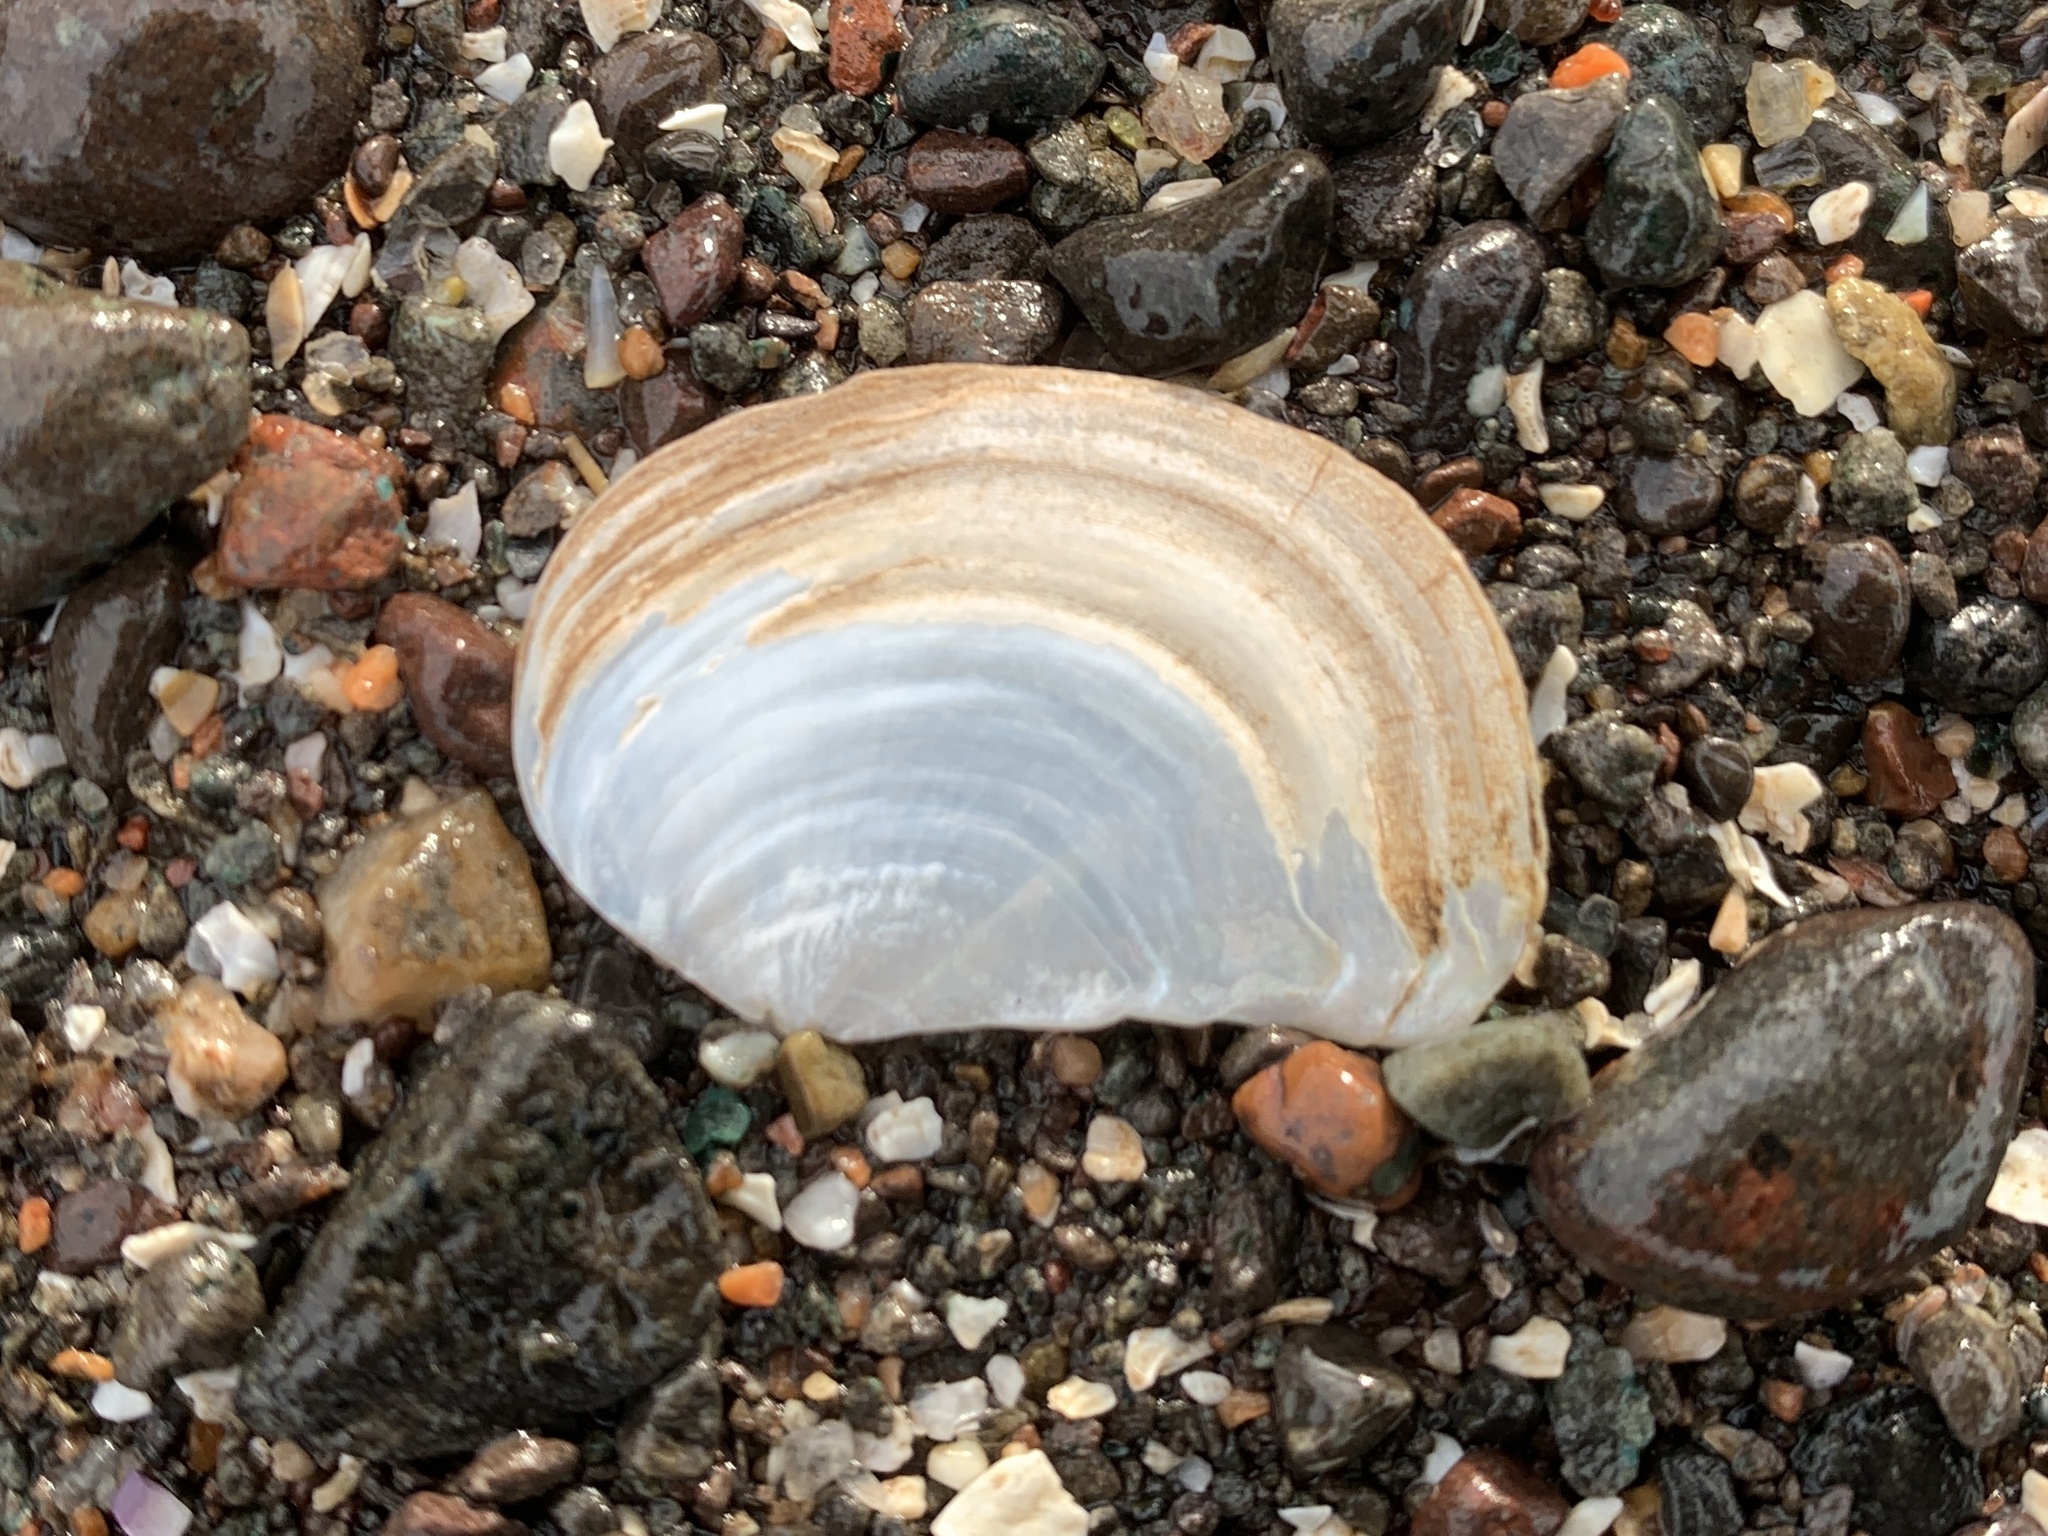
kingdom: Animalia
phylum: Mollusca
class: Bivalvia
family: Pandoridae
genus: Pandora
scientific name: Pandora gouldiana
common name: Rounded pandora
